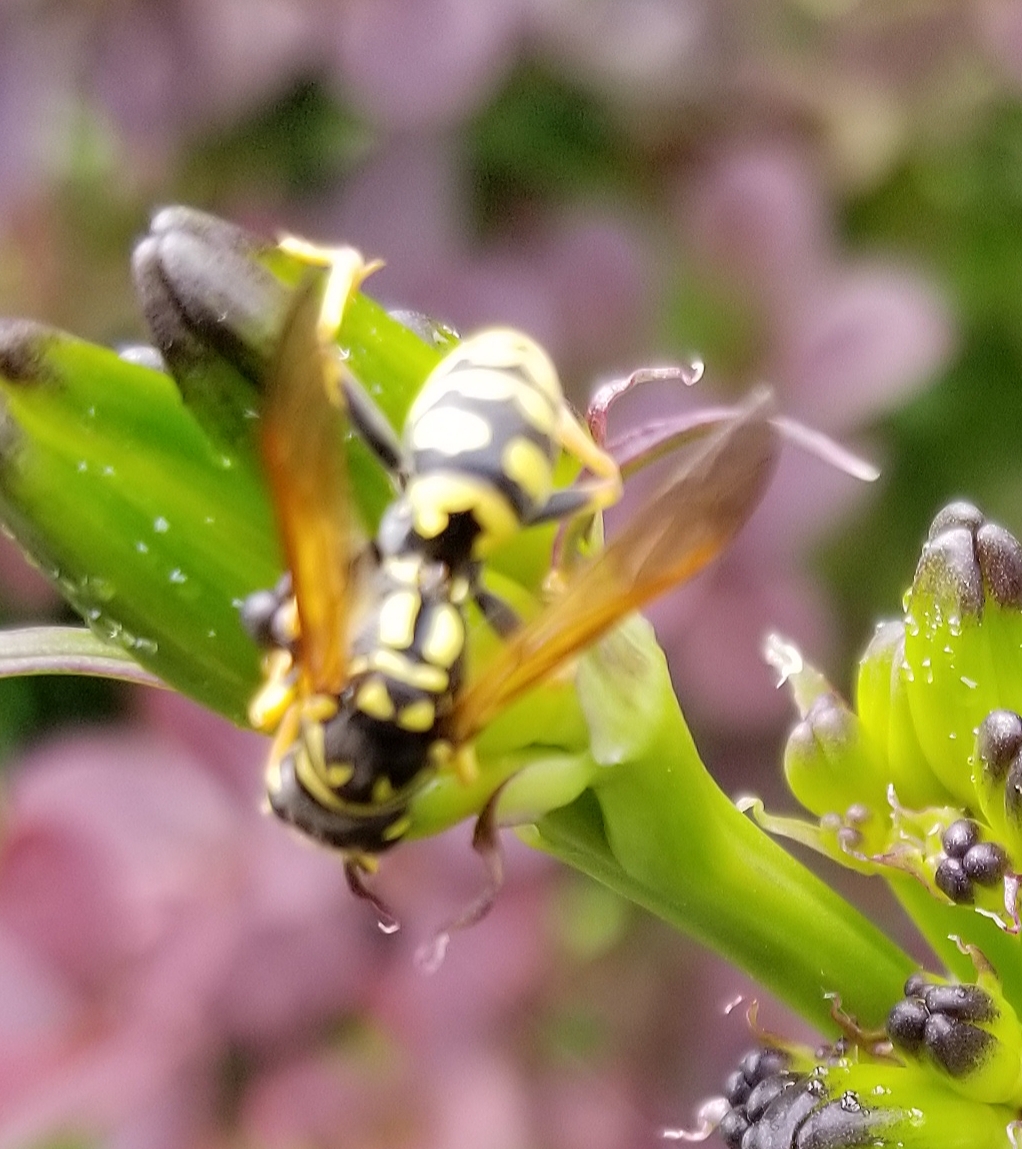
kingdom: Animalia
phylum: Arthropoda
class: Insecta
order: Hymenoptera
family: Eumenidae
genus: Polistes
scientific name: Polistes dominula
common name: Paper wasp
